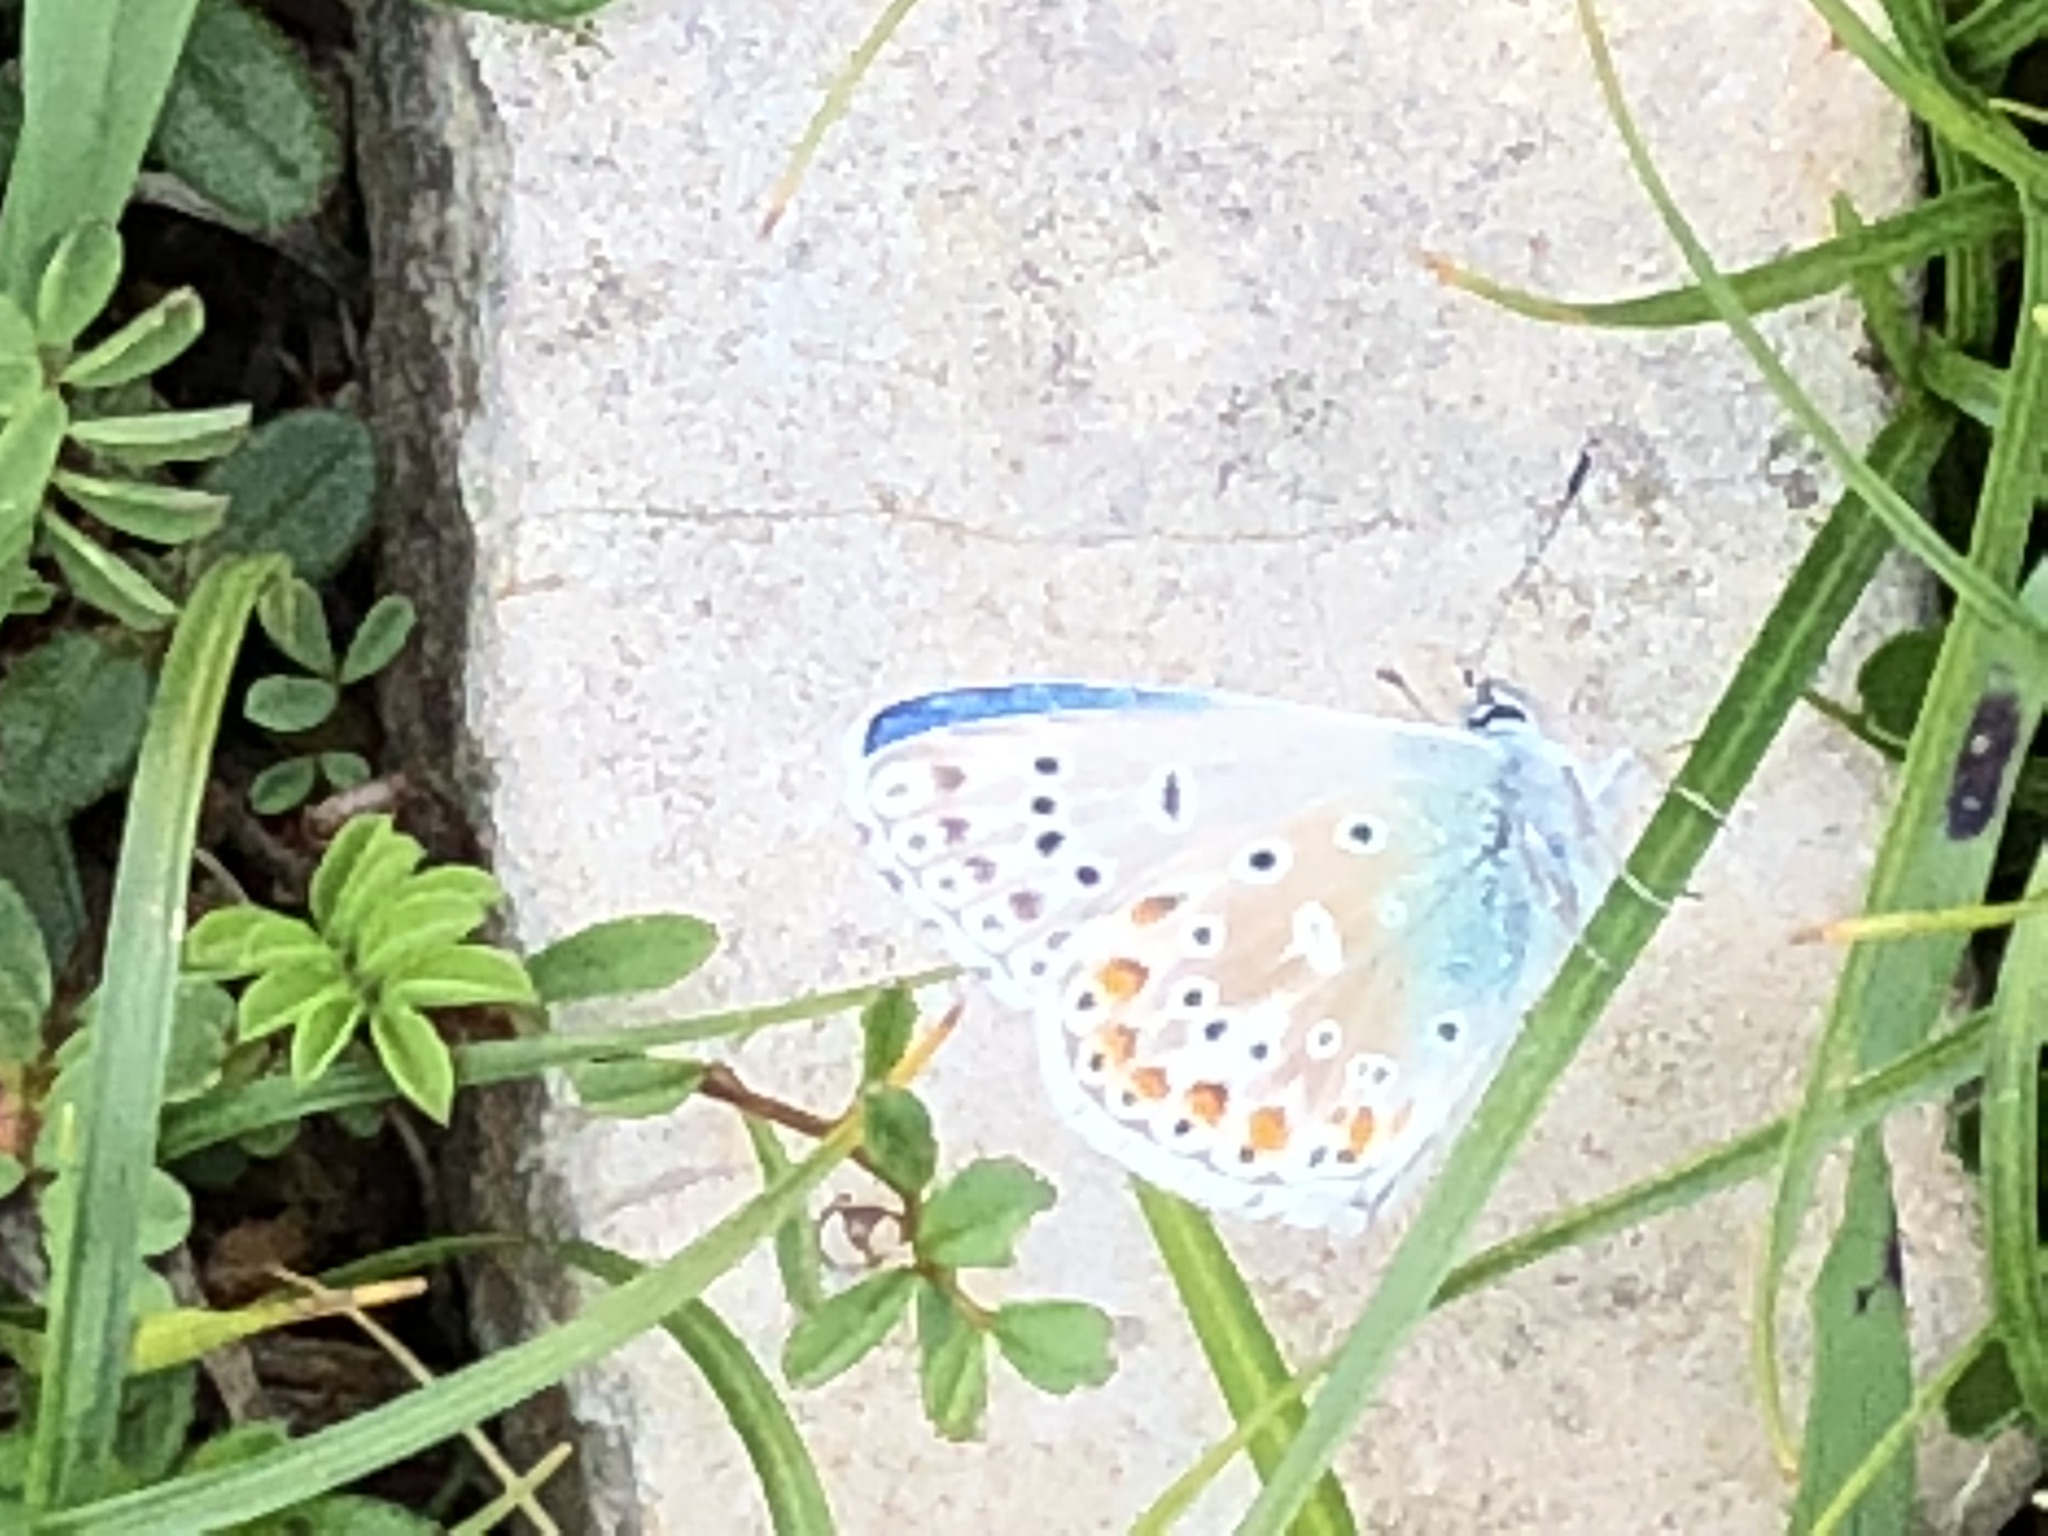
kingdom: Animalia
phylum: Arthropoda
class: Insecta
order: Lepidoptera
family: Lycaenidae
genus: Lysandra
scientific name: Lysandra bellargus
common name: Adonis blue
